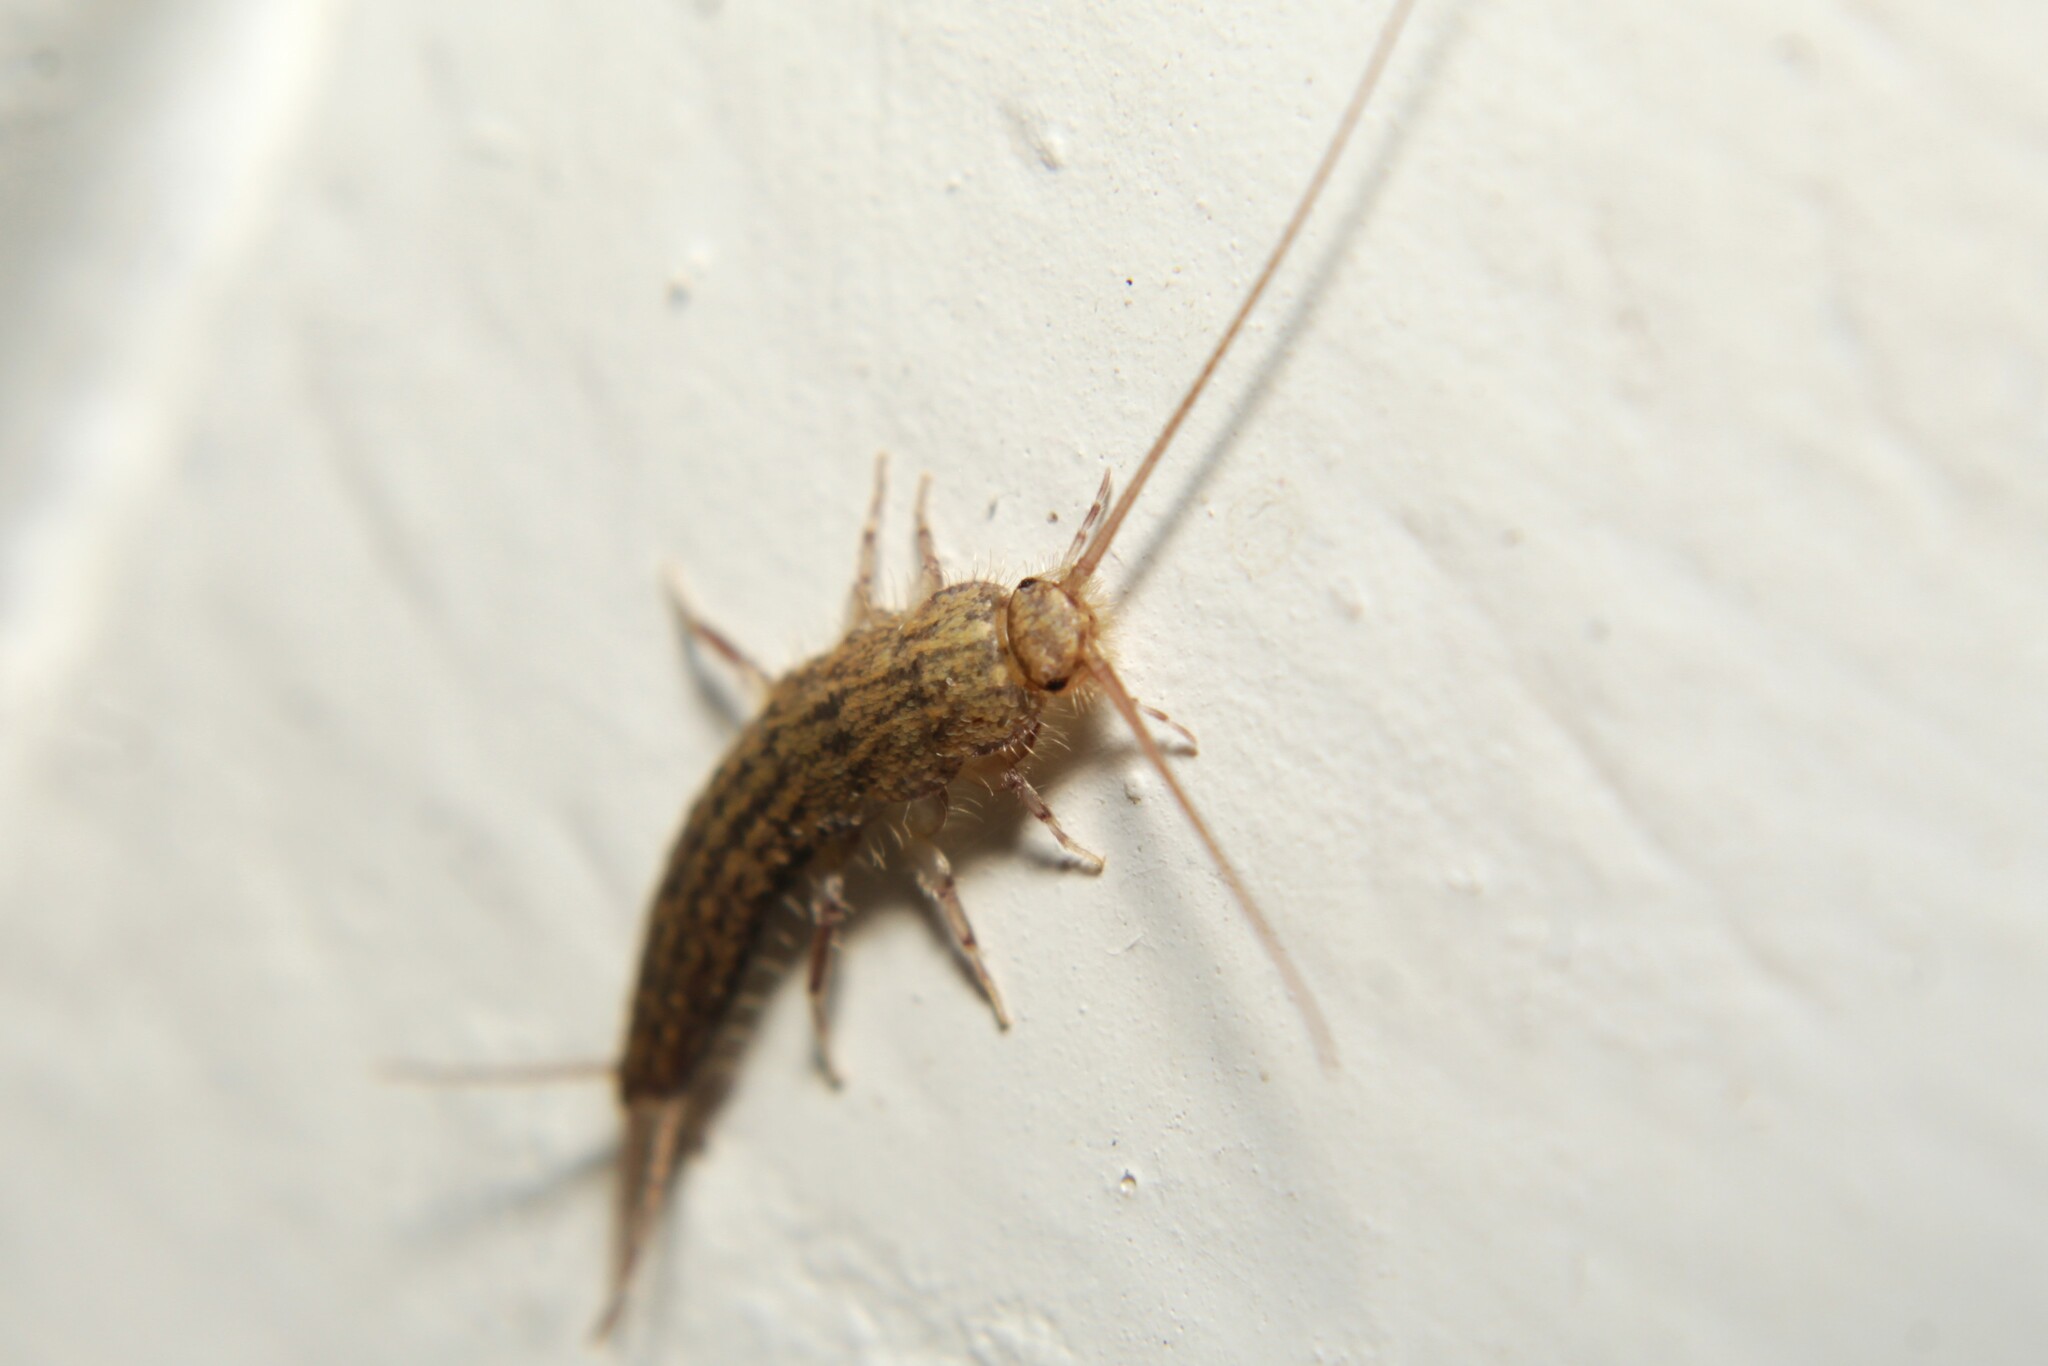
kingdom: Animalia
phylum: Arthropoda
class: Insecta
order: Zygentoma
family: Lepismatidae
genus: Ctenolepisma
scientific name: Ctenolepisma lineata
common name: Four-lined silverfish
